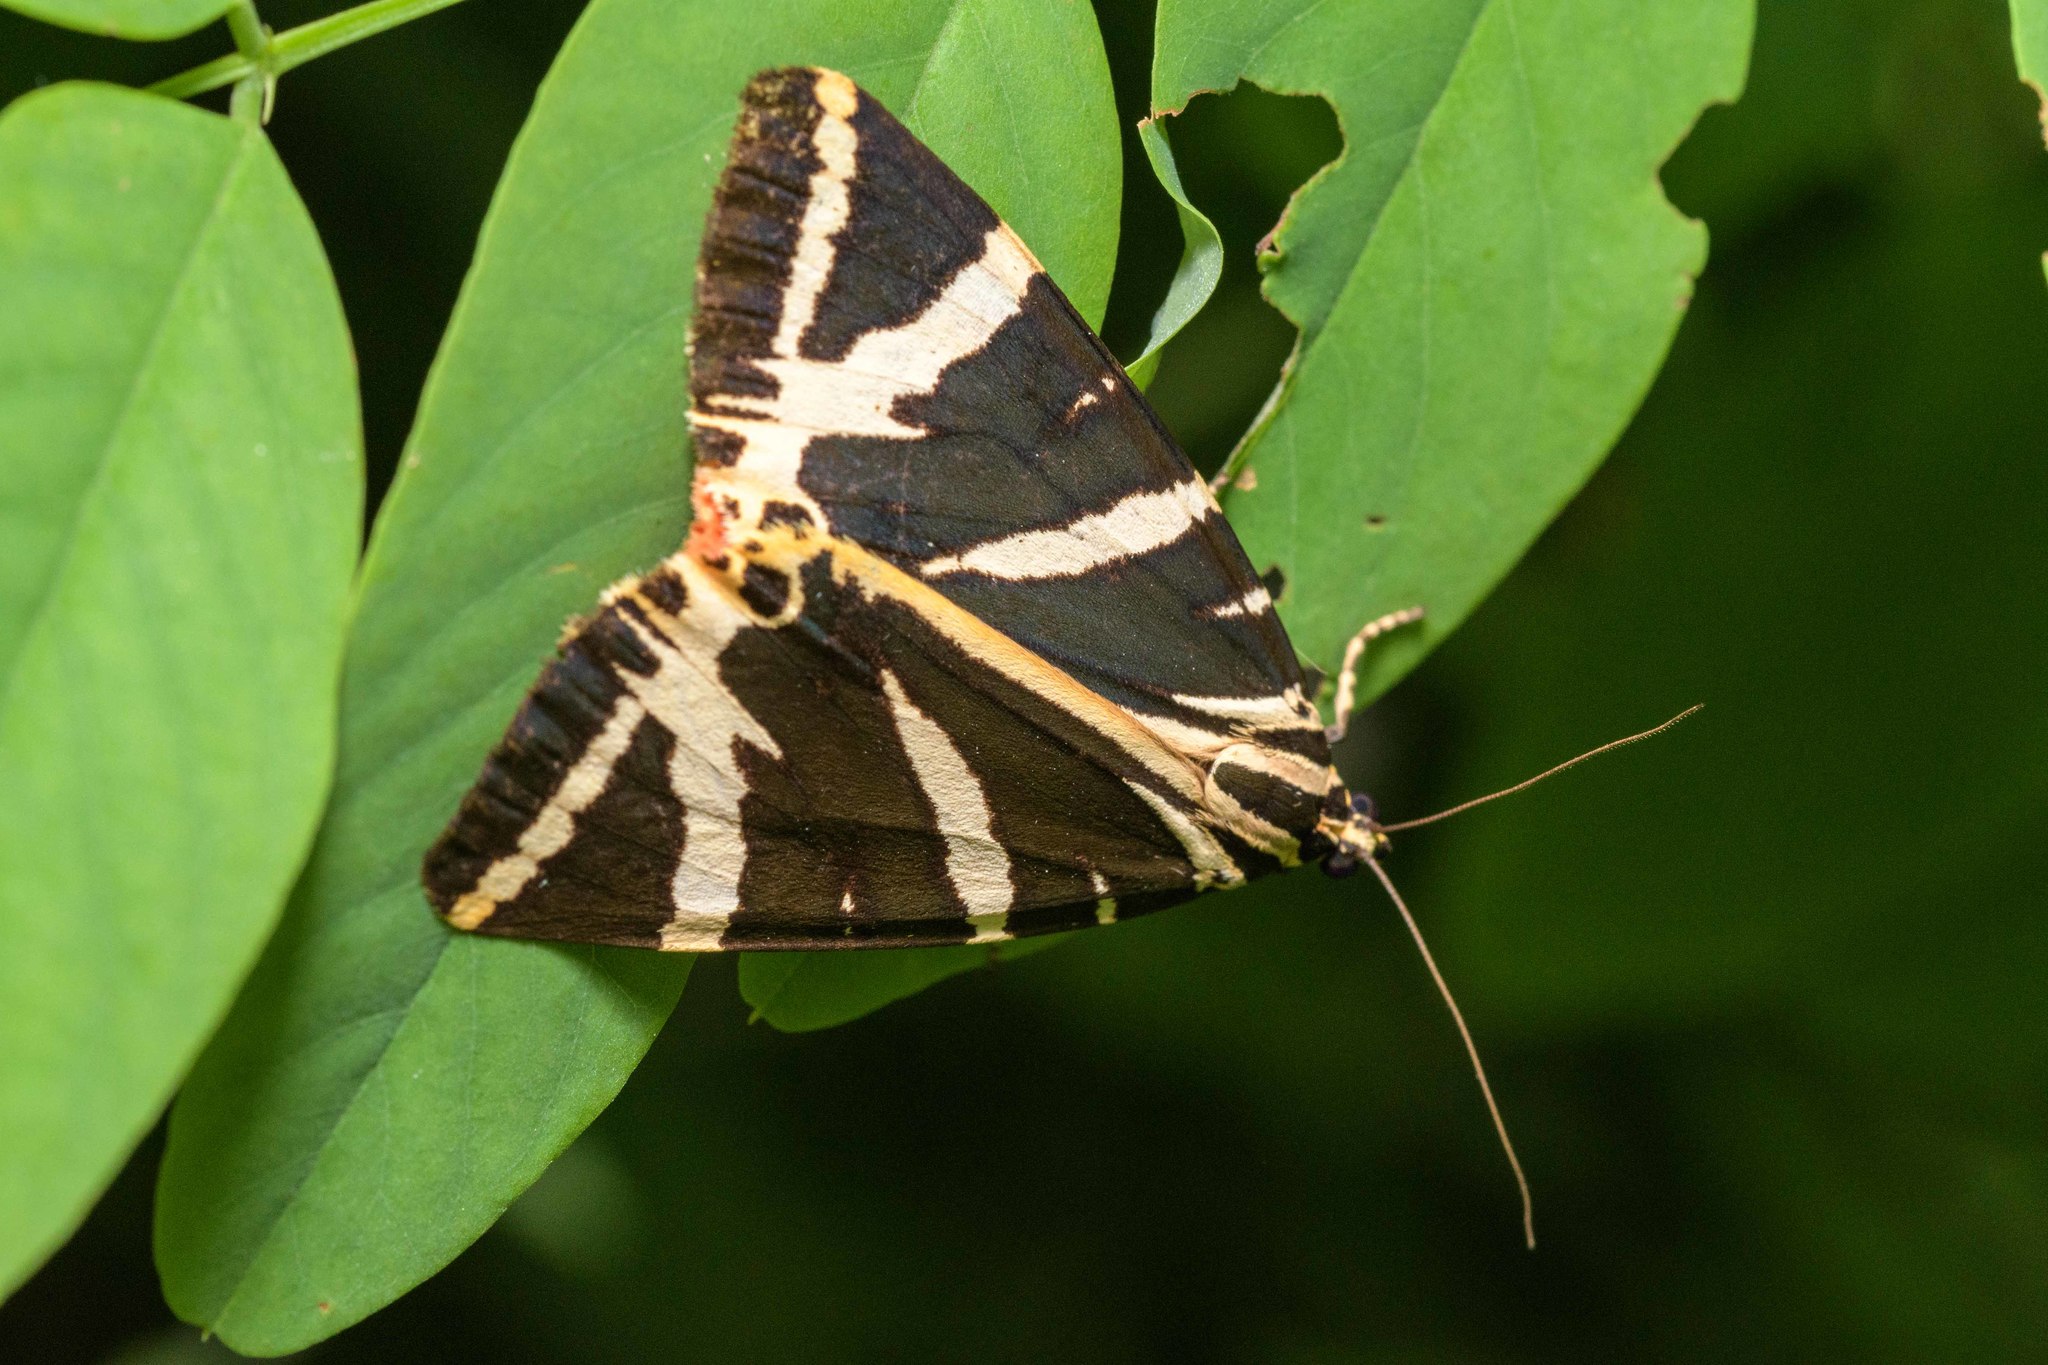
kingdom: Animalia
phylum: Arthropoda
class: Insecta
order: Lepidoptera
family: Erebidae
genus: Euplagia
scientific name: Euplagia quadripunctaria
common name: Jersey tiger
